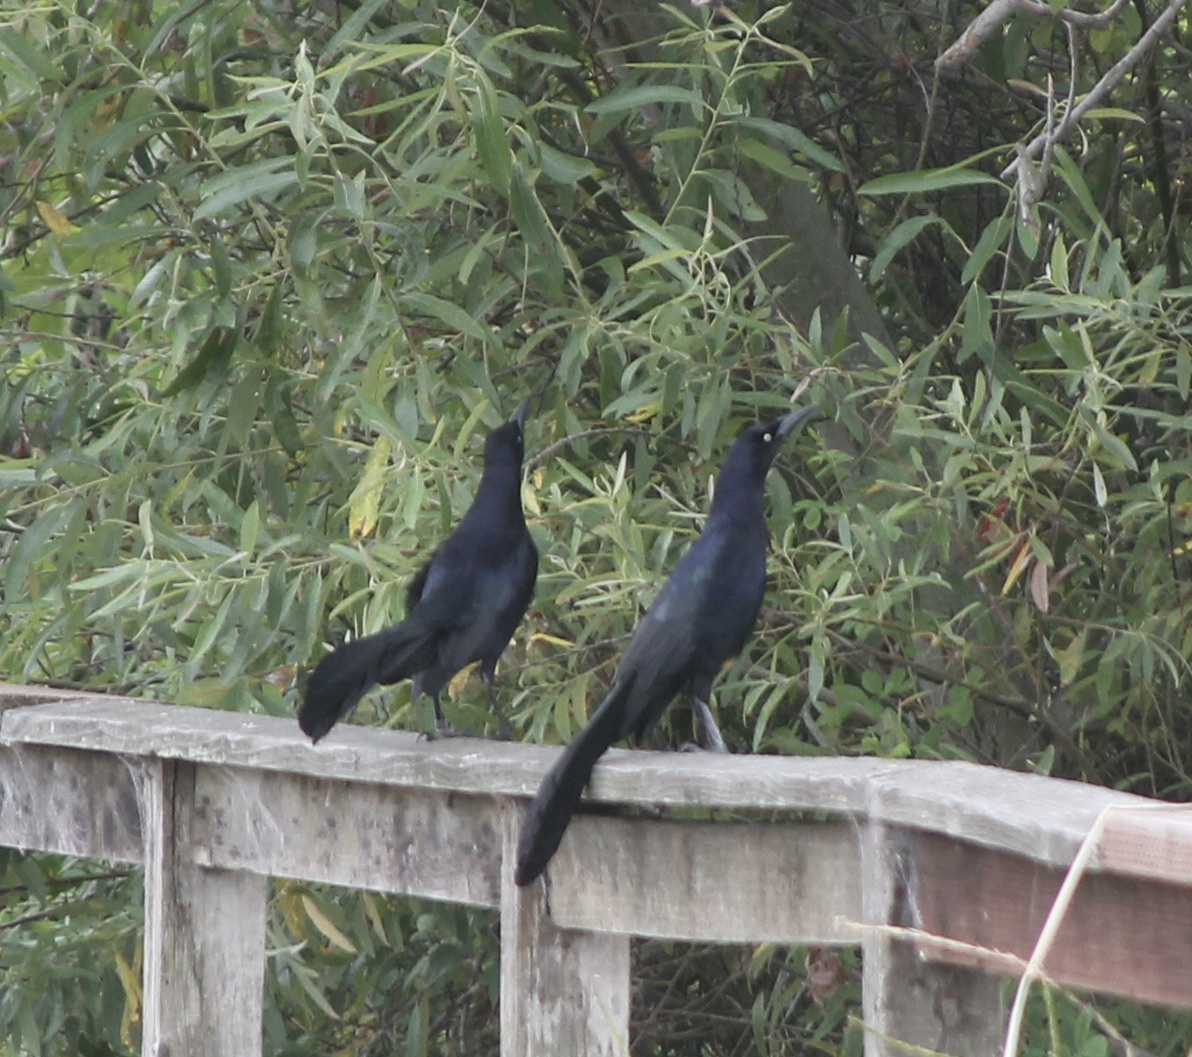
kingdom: Animalia
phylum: Chordata
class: Aves
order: Passeriformes
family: Icteridae
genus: Quiscalus
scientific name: Quiscalus mexicanus
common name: Great-tailed grackle
